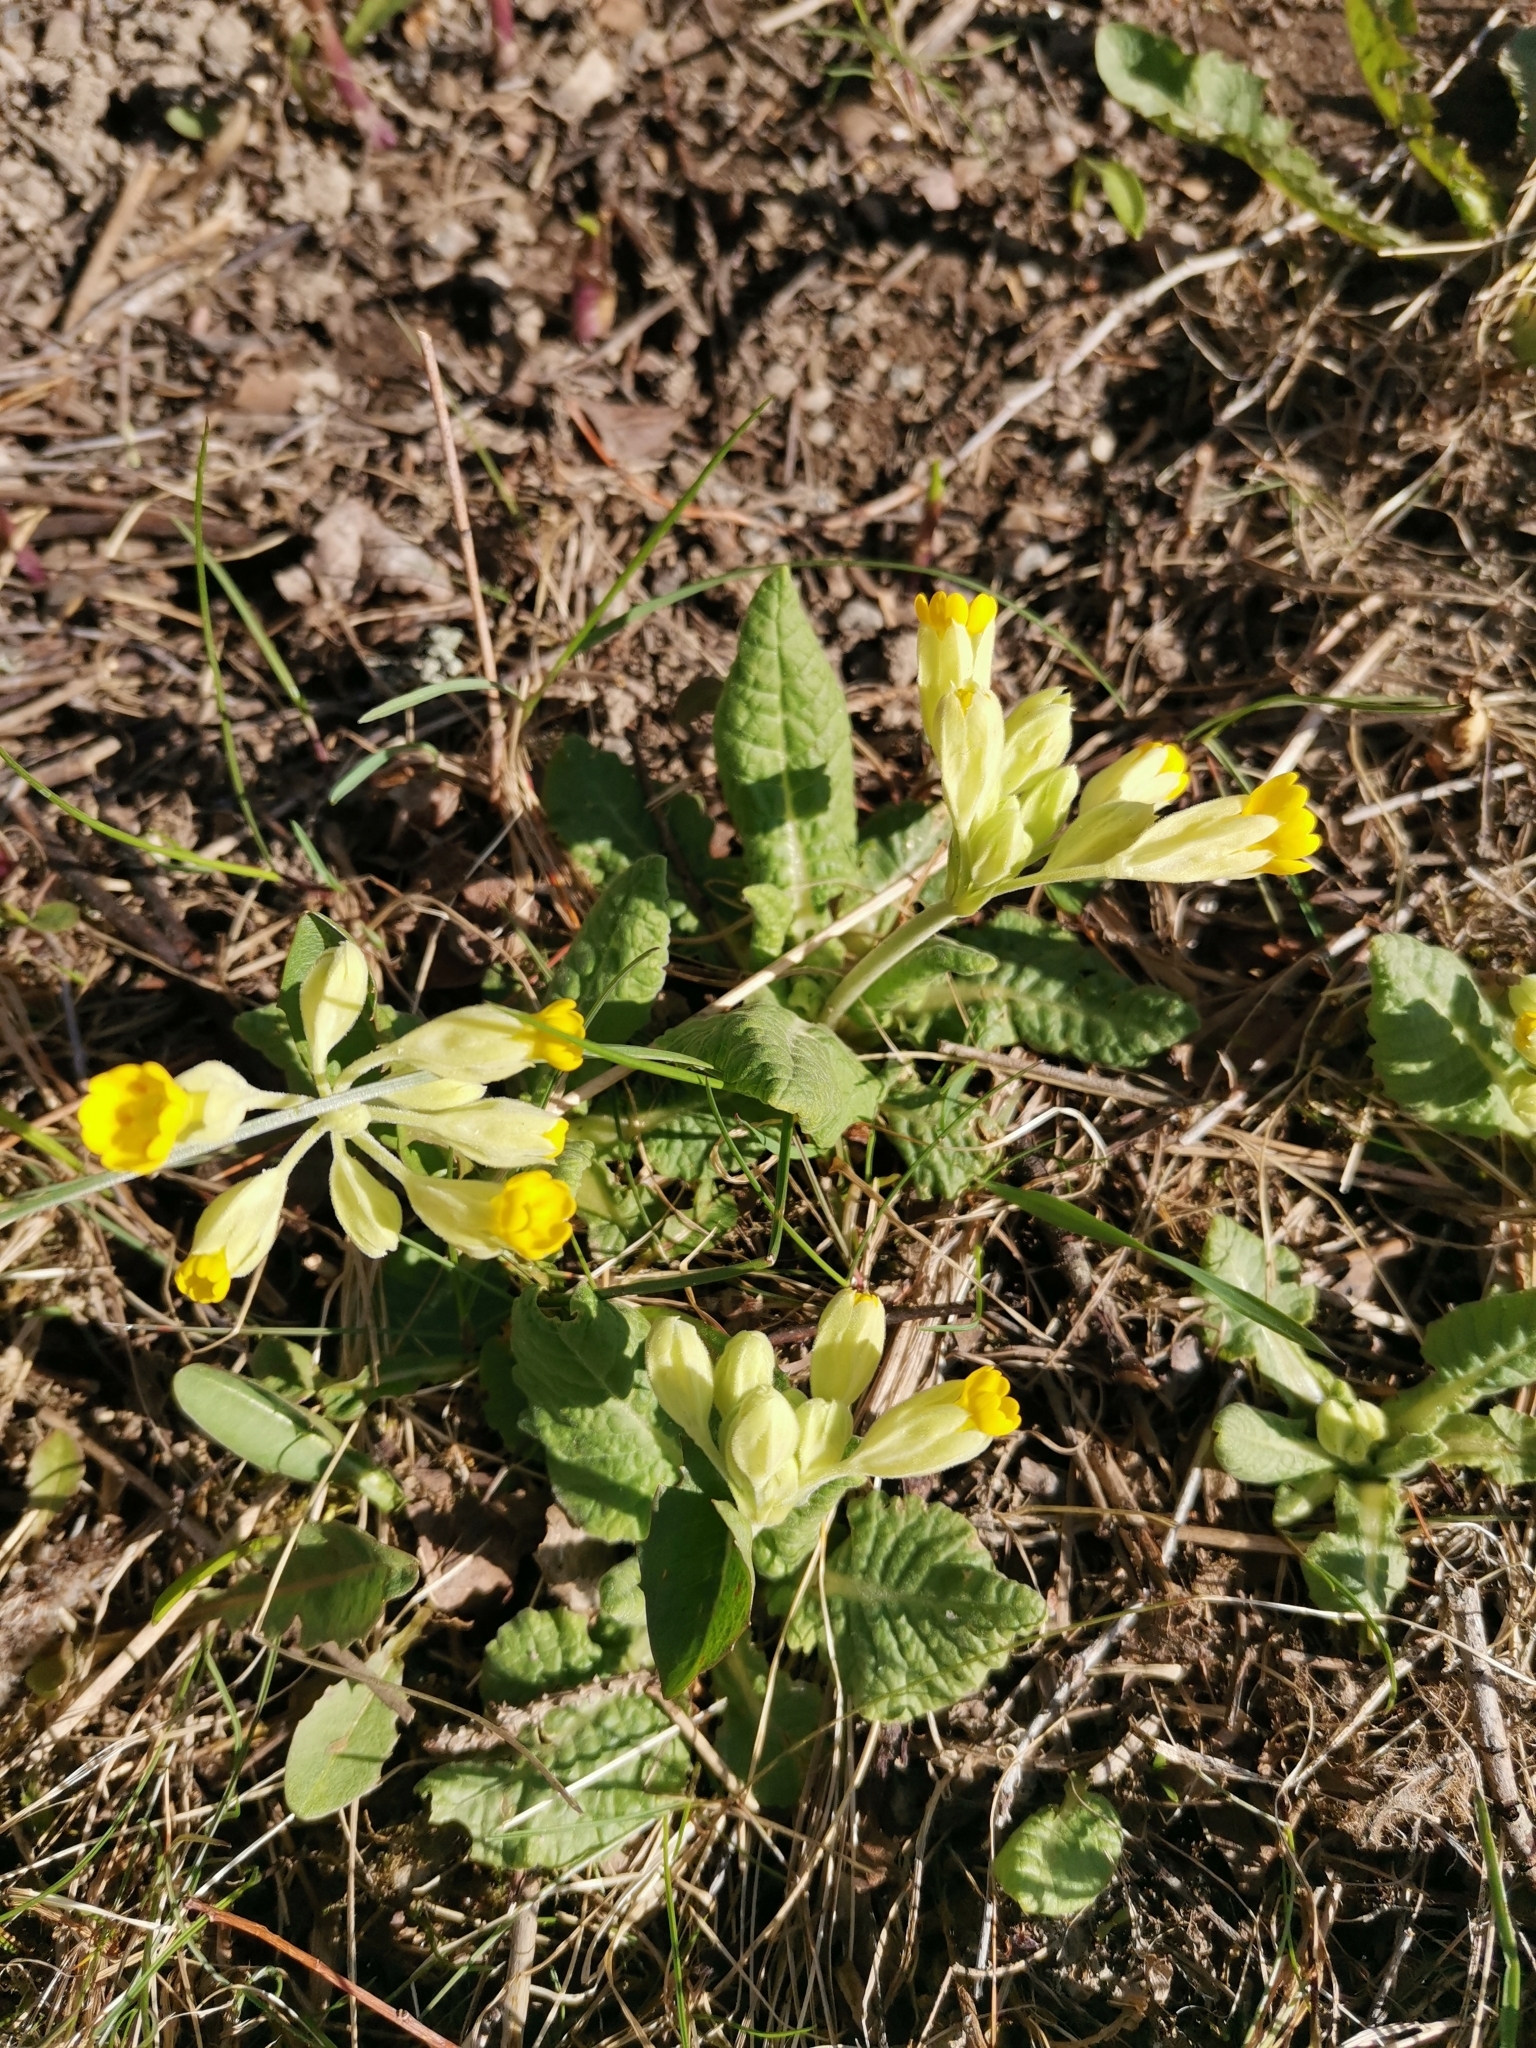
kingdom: Plantae
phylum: Tracheophyta
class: Magnoliopsida
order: Ericales
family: Primulaceae
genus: Primula
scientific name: Primula veris
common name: Cowslip
